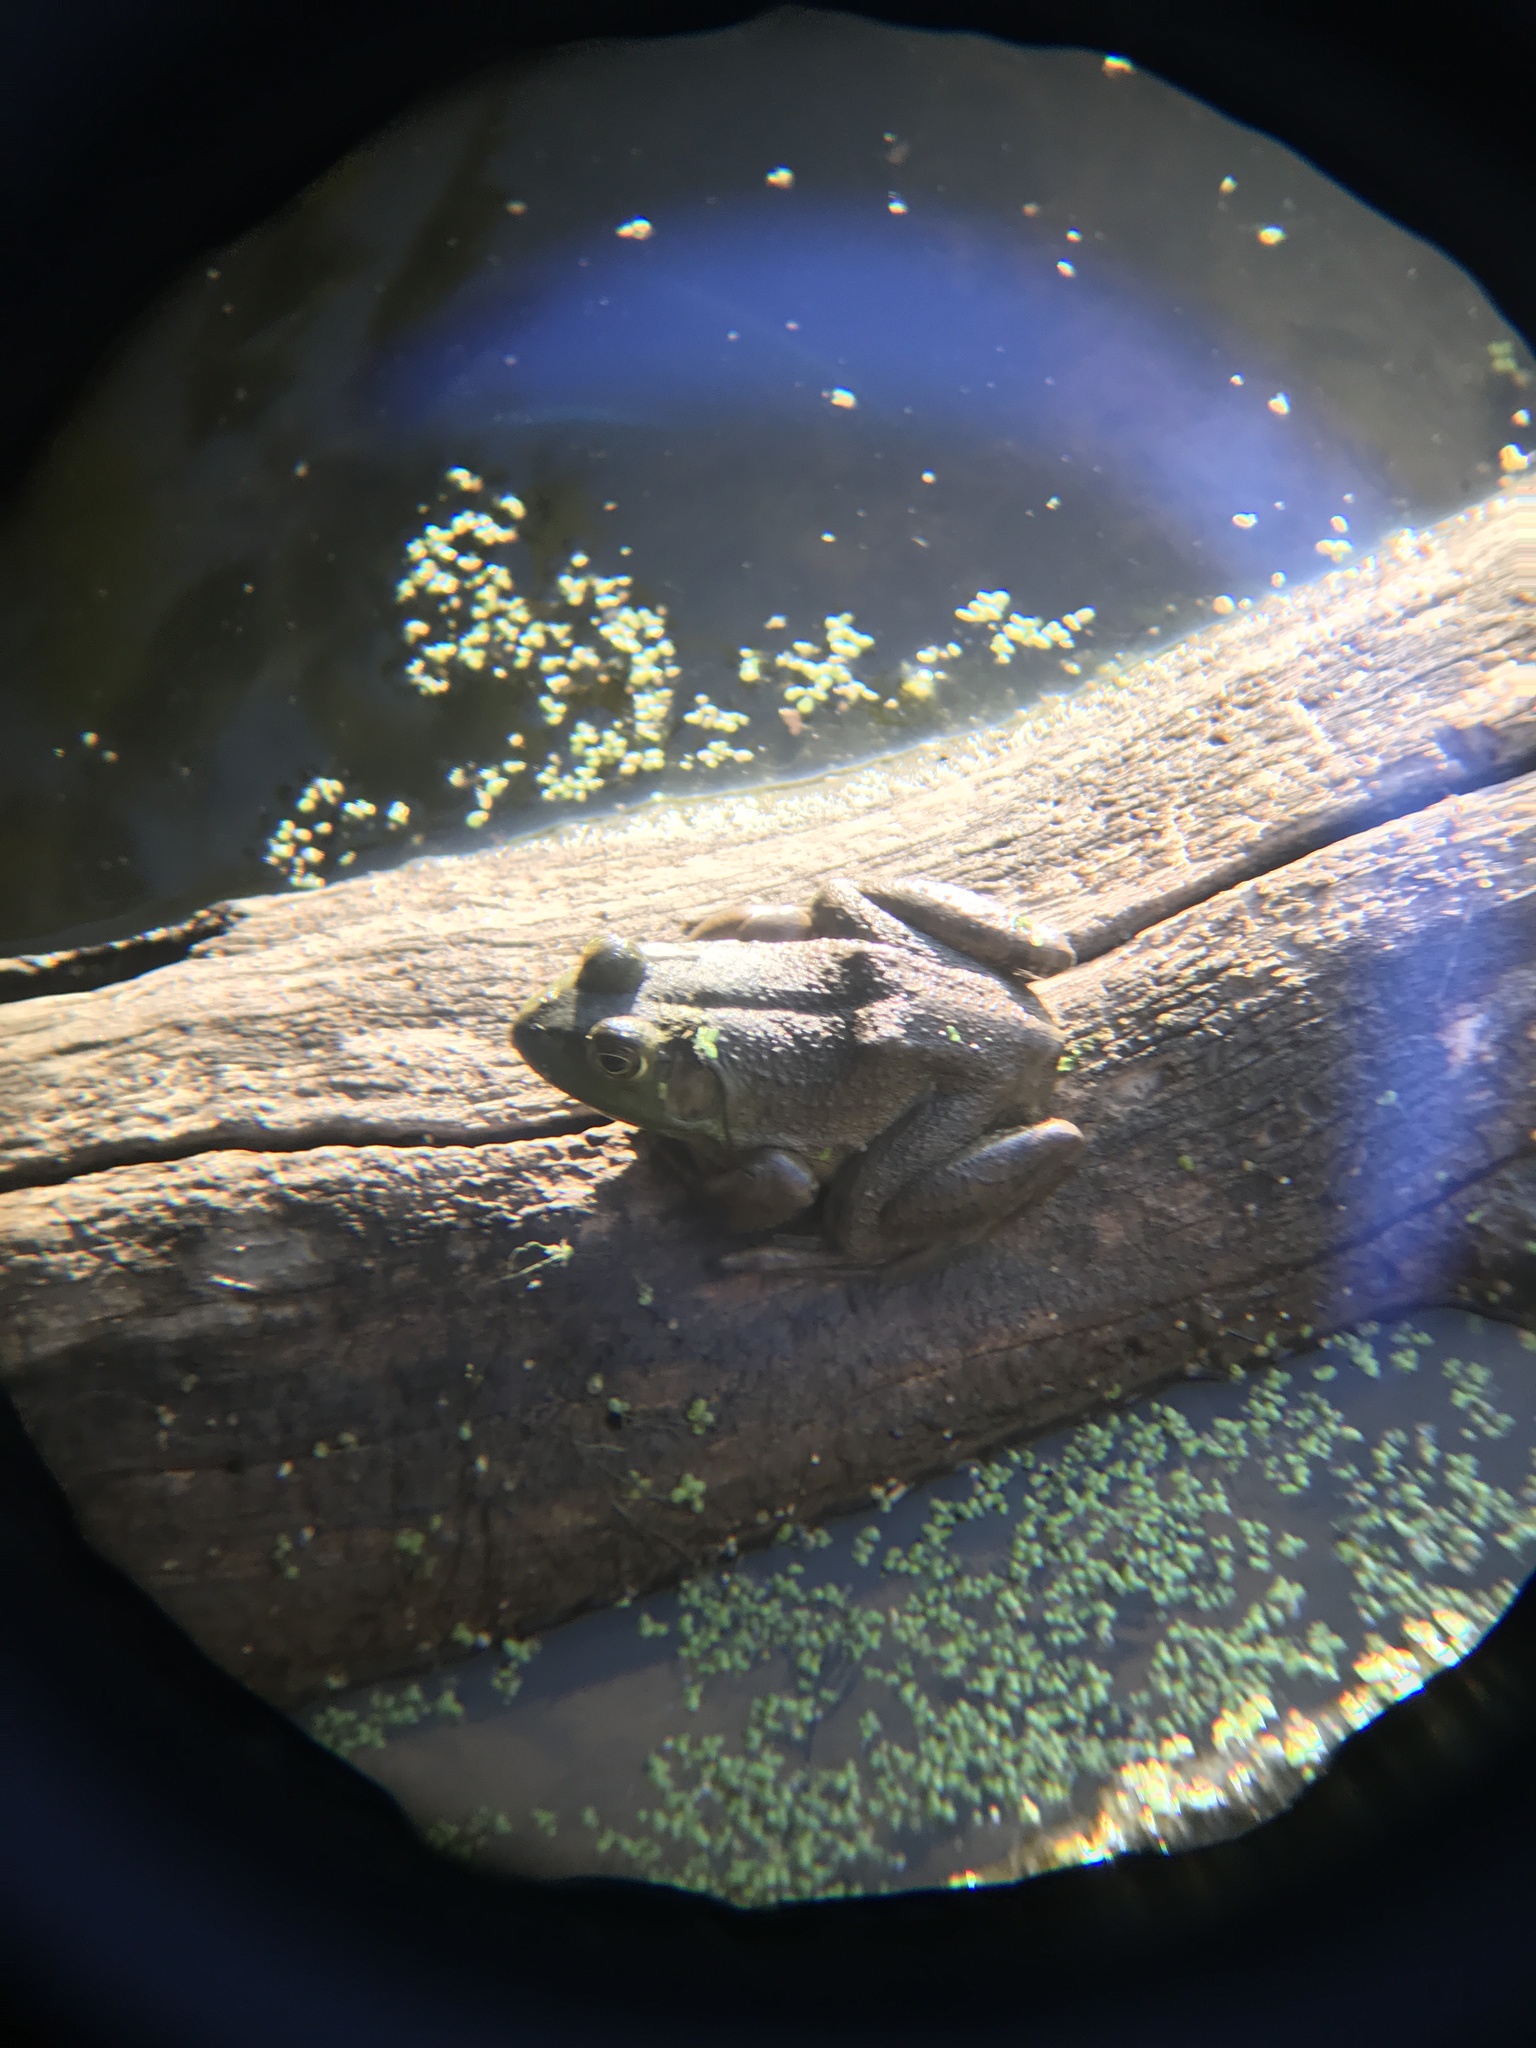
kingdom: Animalia
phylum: Chordata
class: Amphibia
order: Anura
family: Ranidae
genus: Lithobates
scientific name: Lithobates catesbeianus
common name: American bullfrog
